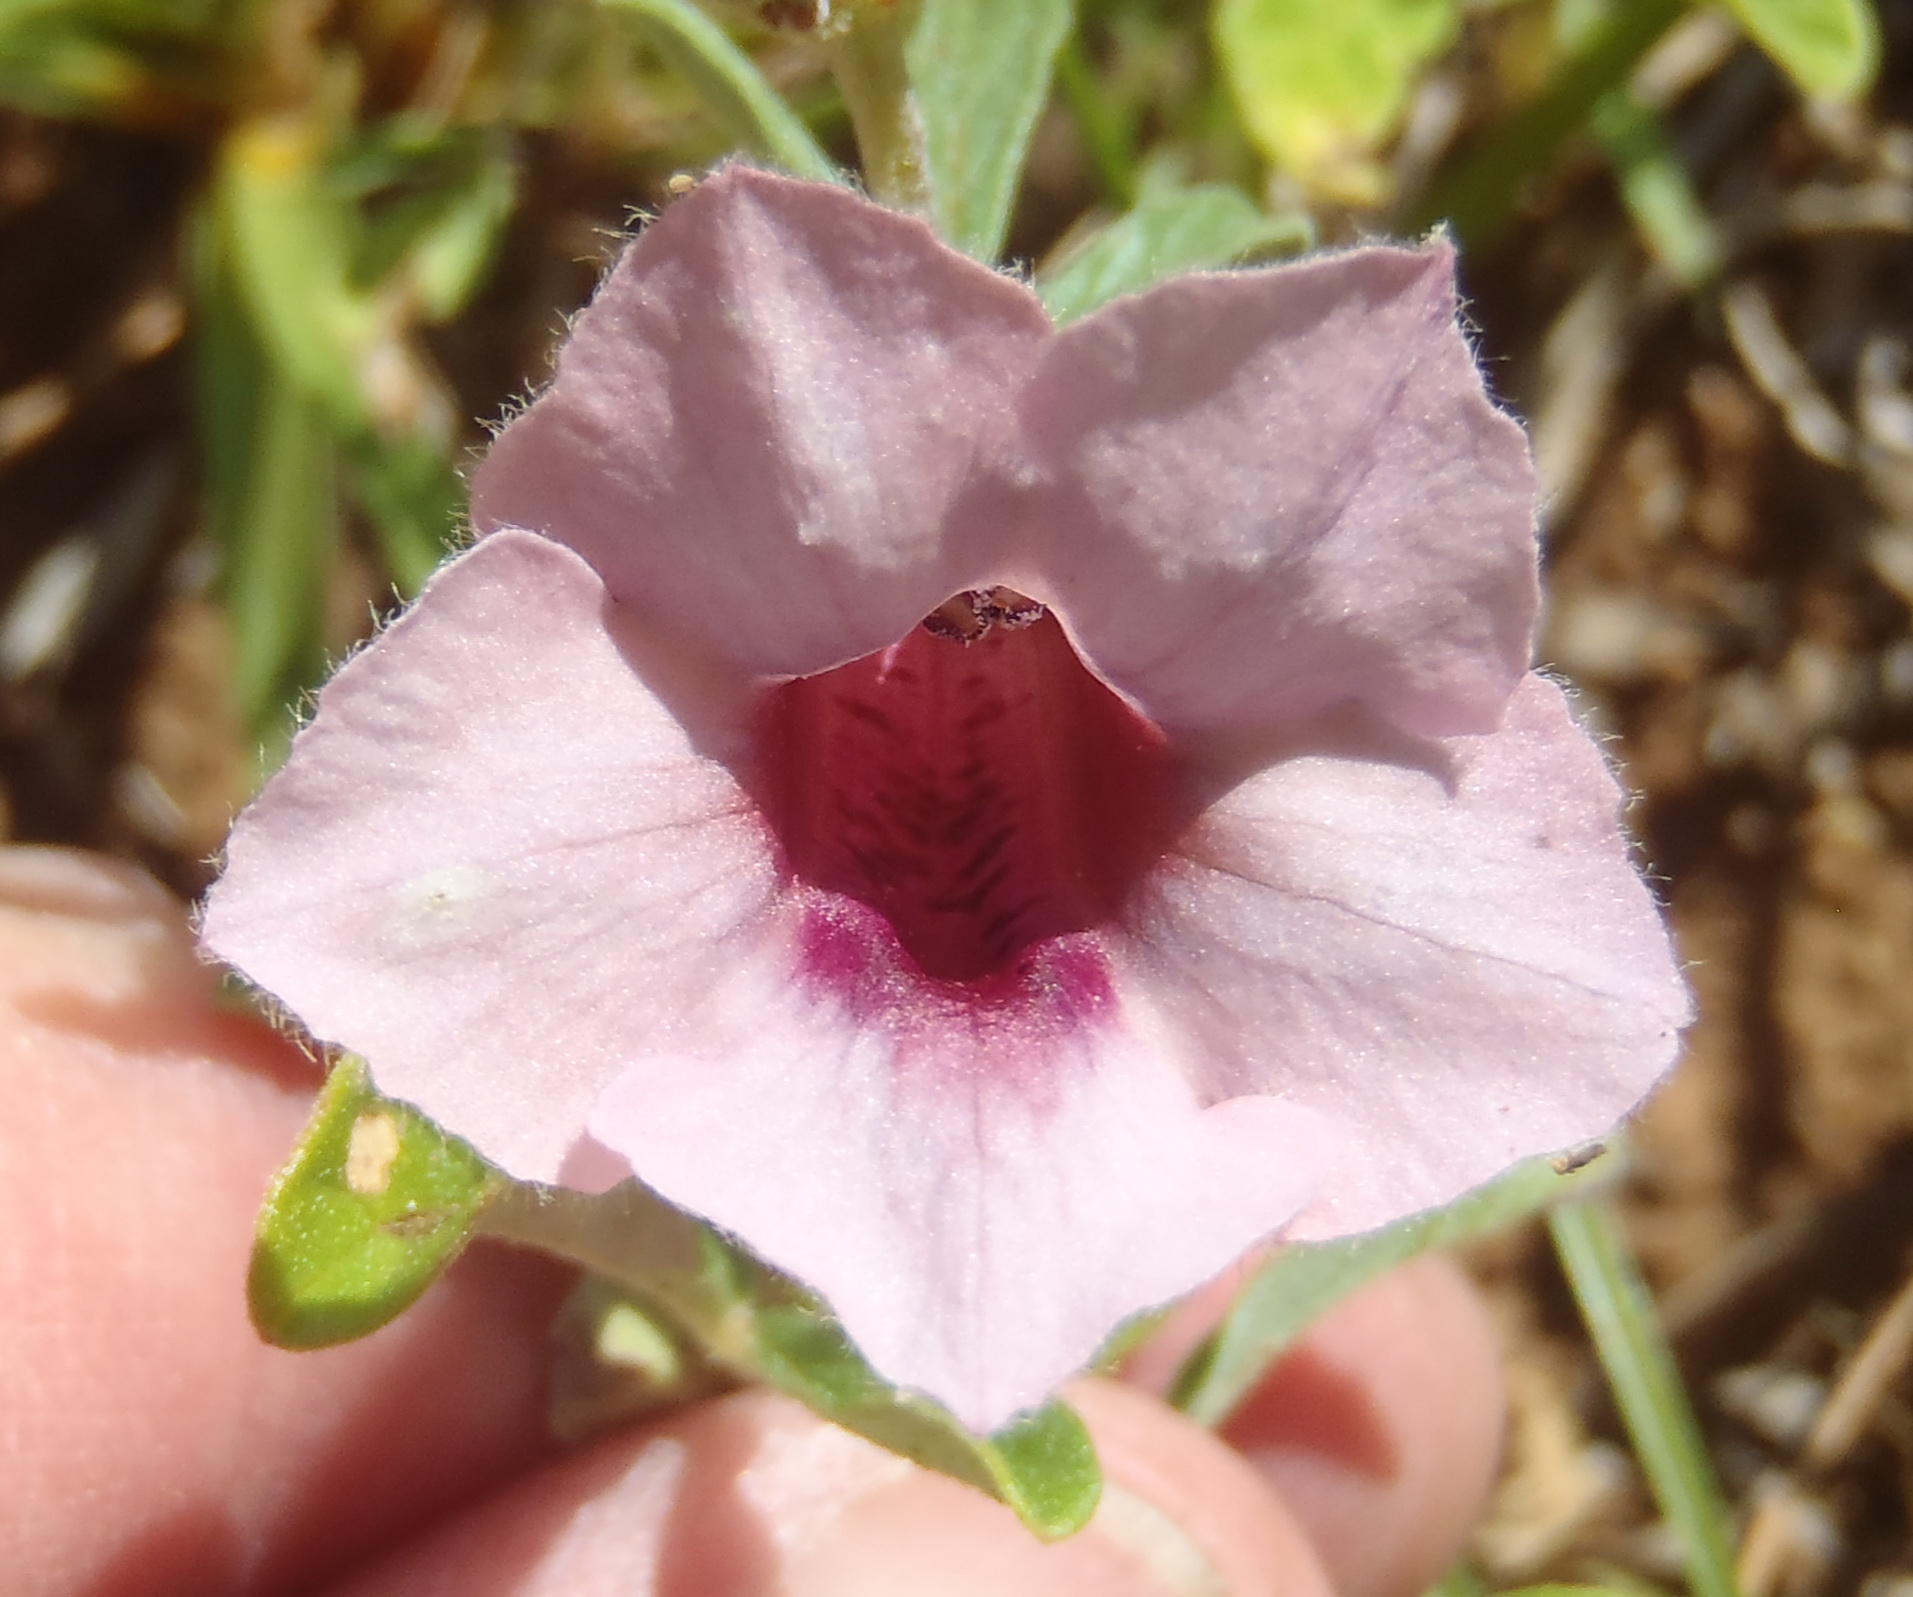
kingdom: Plantae
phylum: Tracheophyta
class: Magnoliopsida
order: Lamiales
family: Pedaliaceae
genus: Sesamum
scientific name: Sesamum triphyllum
